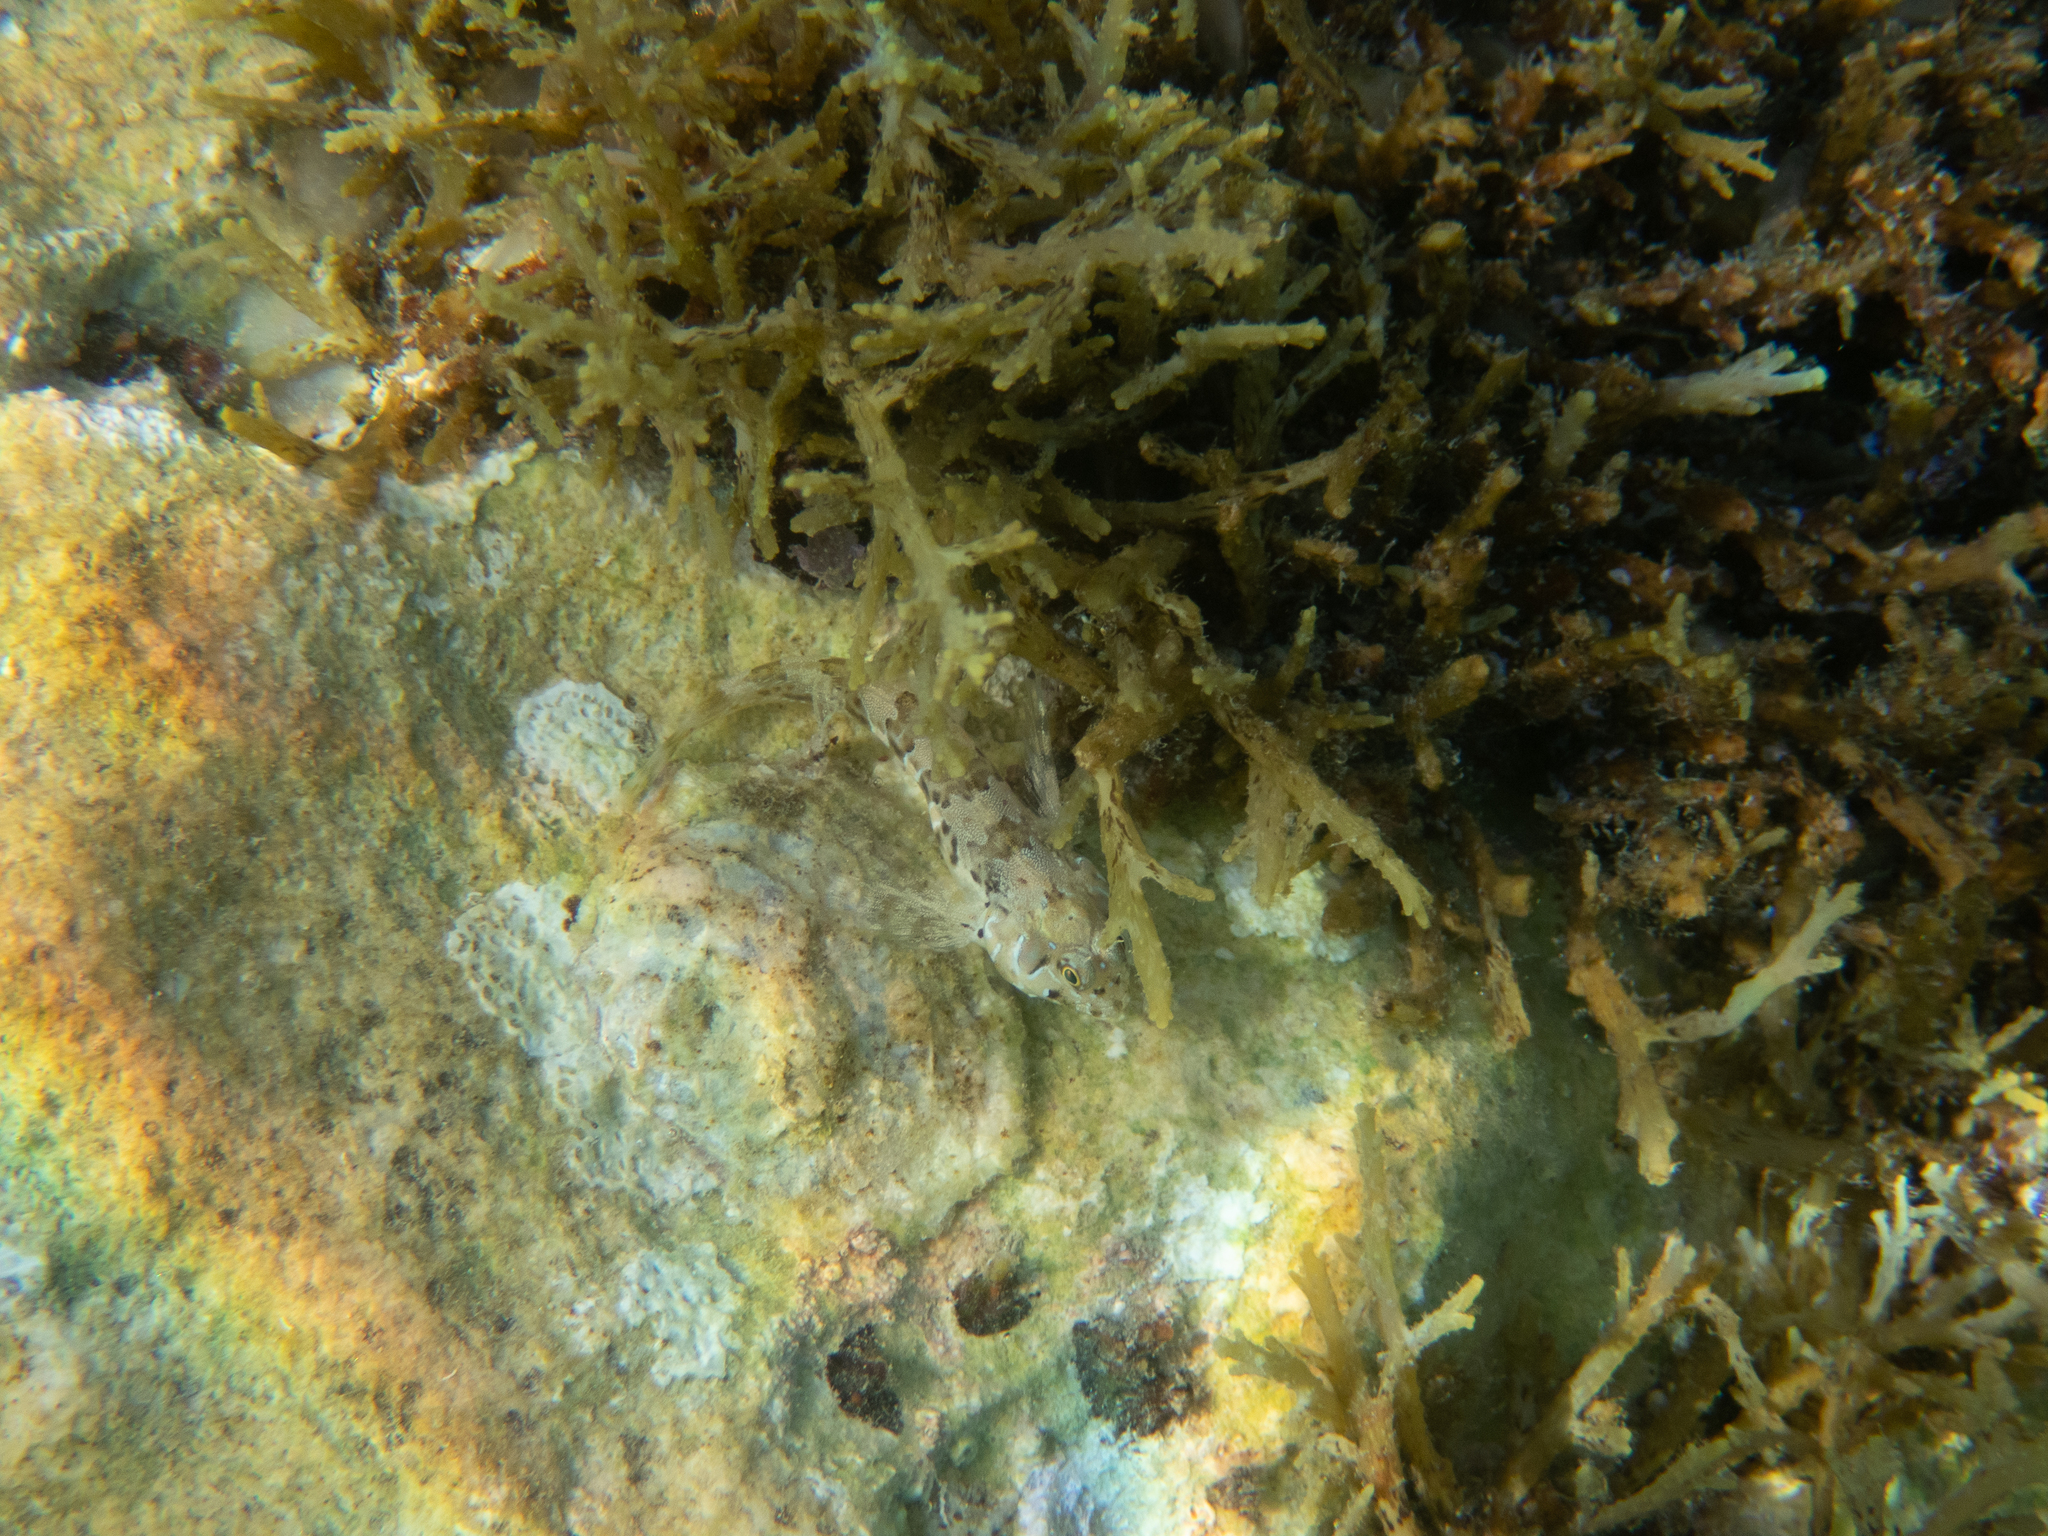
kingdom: Animalia
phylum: Chordata
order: Perciformes
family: Blenniidae
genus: Aidablennius
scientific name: Aidablennius sphynx
